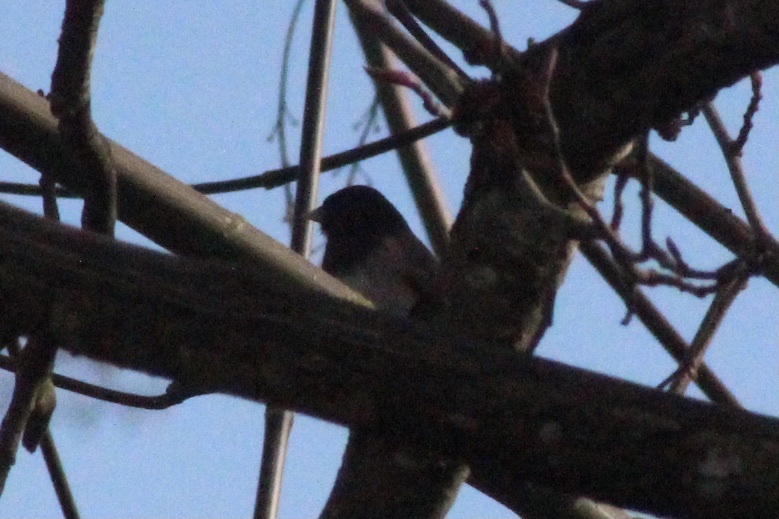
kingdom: Animalia
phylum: Chordata
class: Aves
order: Passeriformes
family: Passerellidae
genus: Junco
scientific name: Junco hyemalis
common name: Dark-eyed junco
